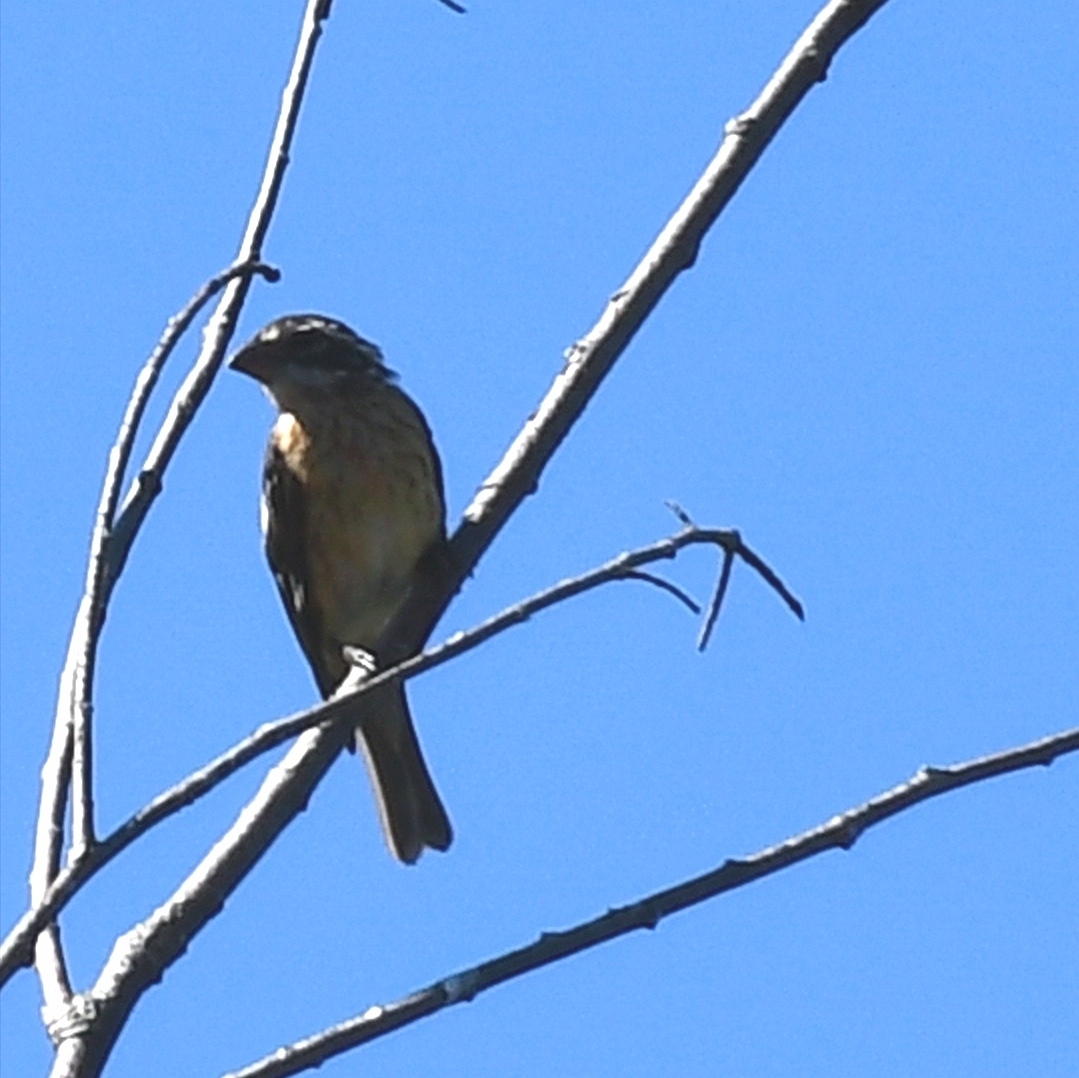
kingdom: Animalia
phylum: Chordata
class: Aves
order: Passeriformes
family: Cardinalidae
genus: Pheucticus
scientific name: Pheucticus ludovicianus
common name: Rose-breasted grosbeak
